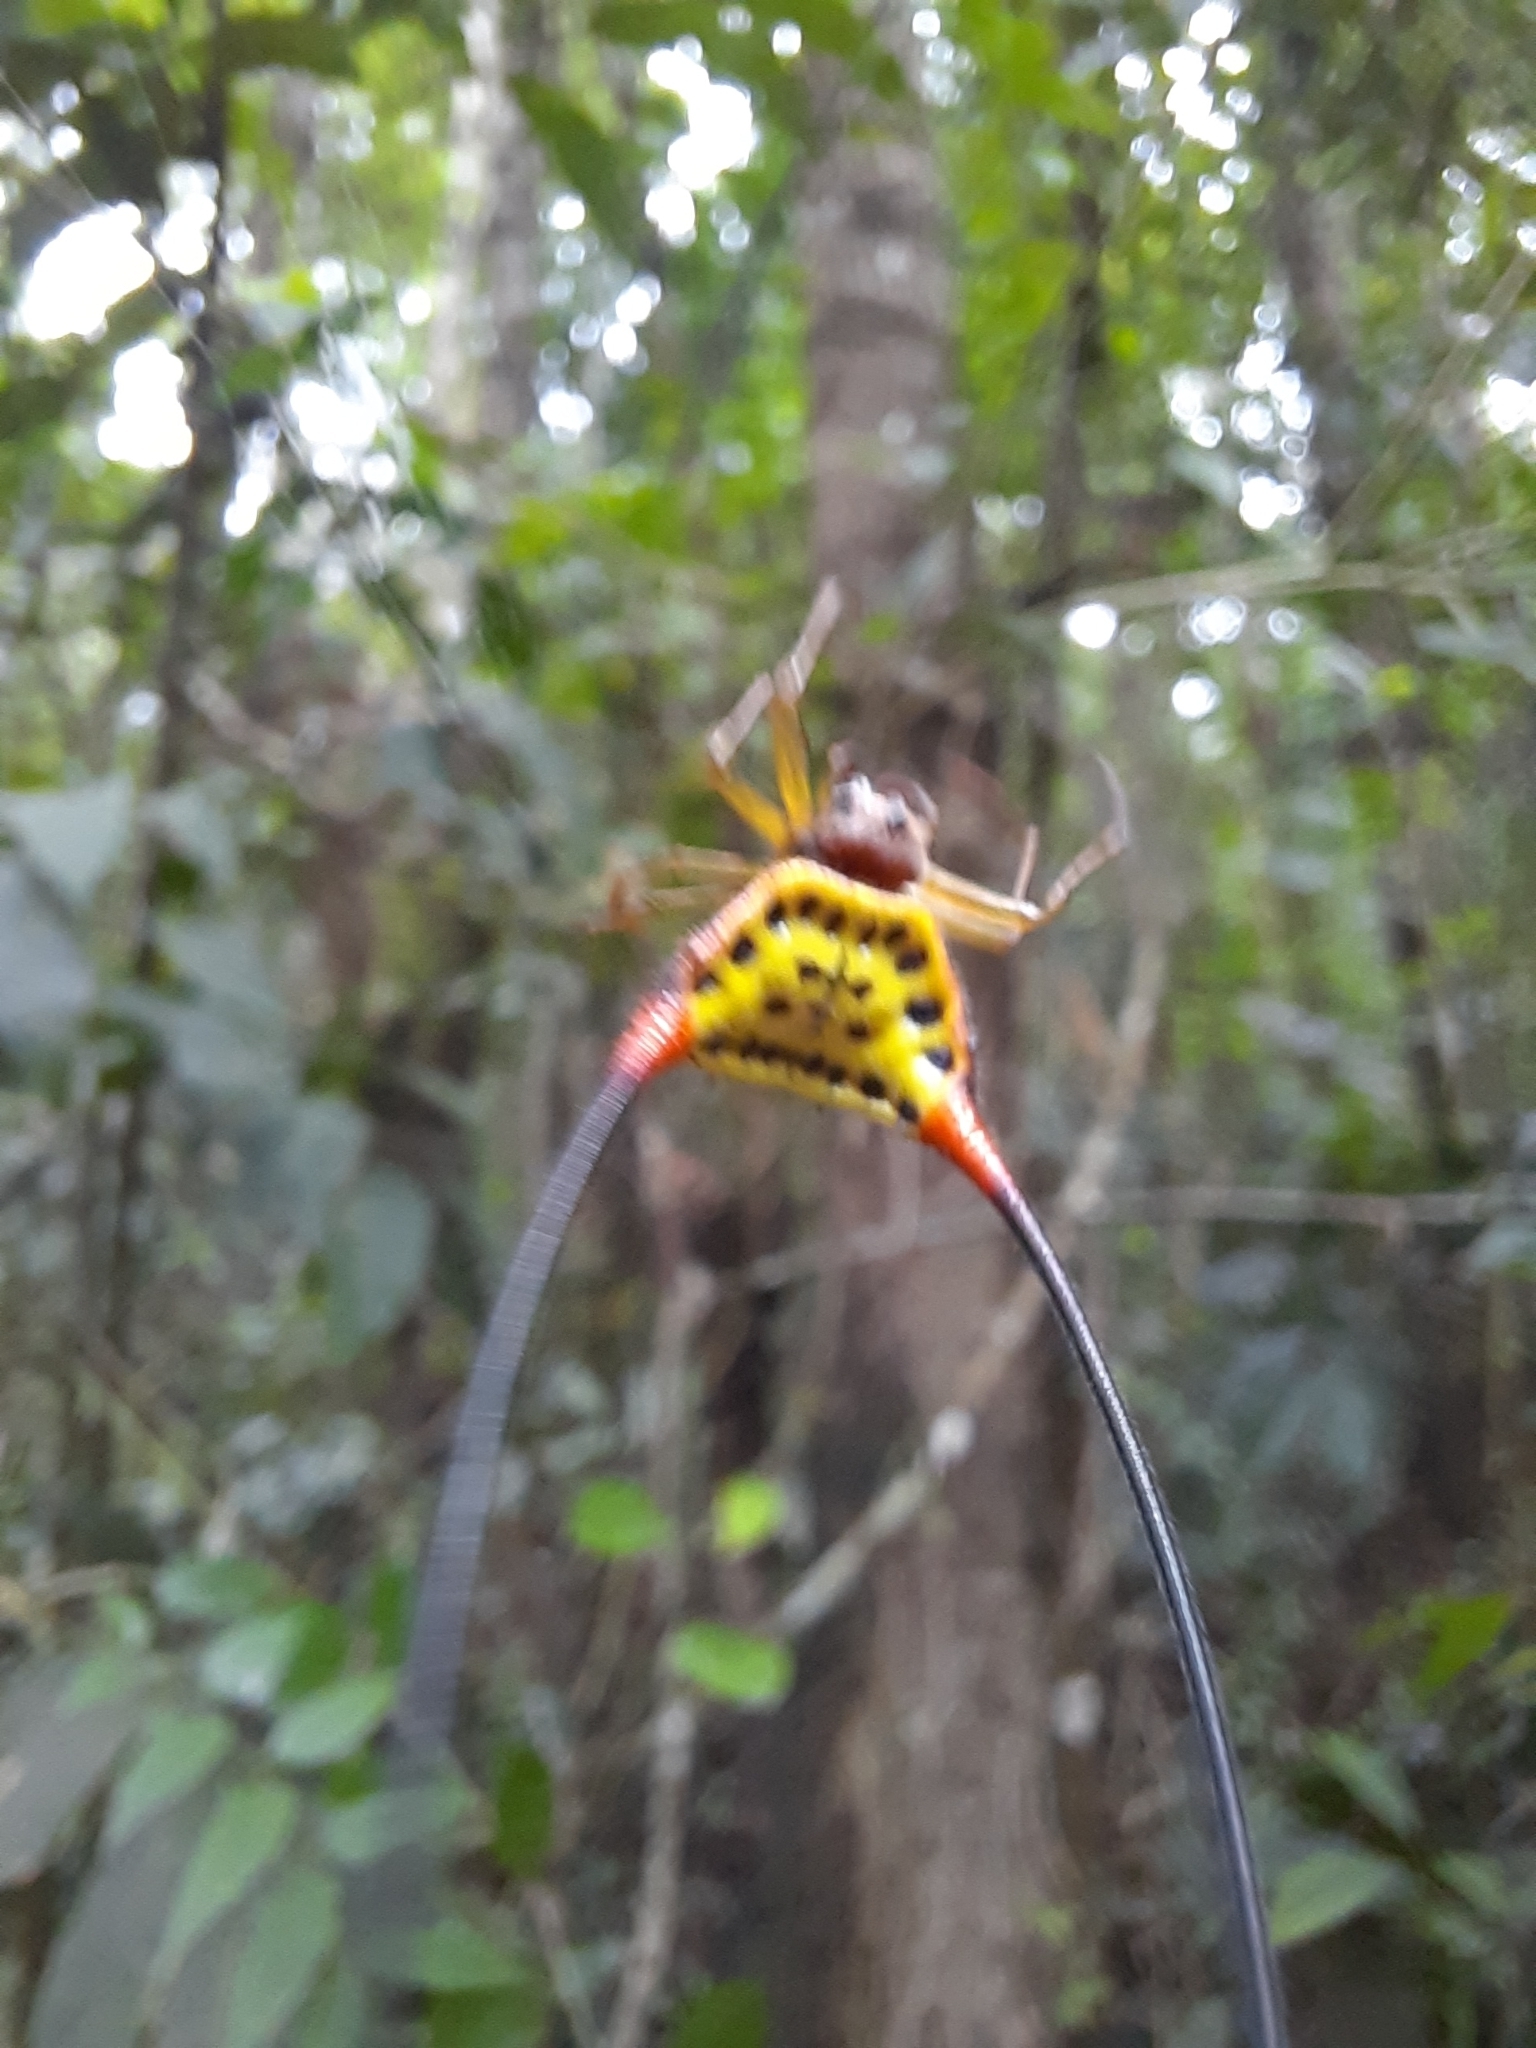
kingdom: Animalia
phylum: Arthropoda
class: Arachnida
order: Araneae
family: Araneidae
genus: Macracantha
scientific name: Macracantha arcuata
